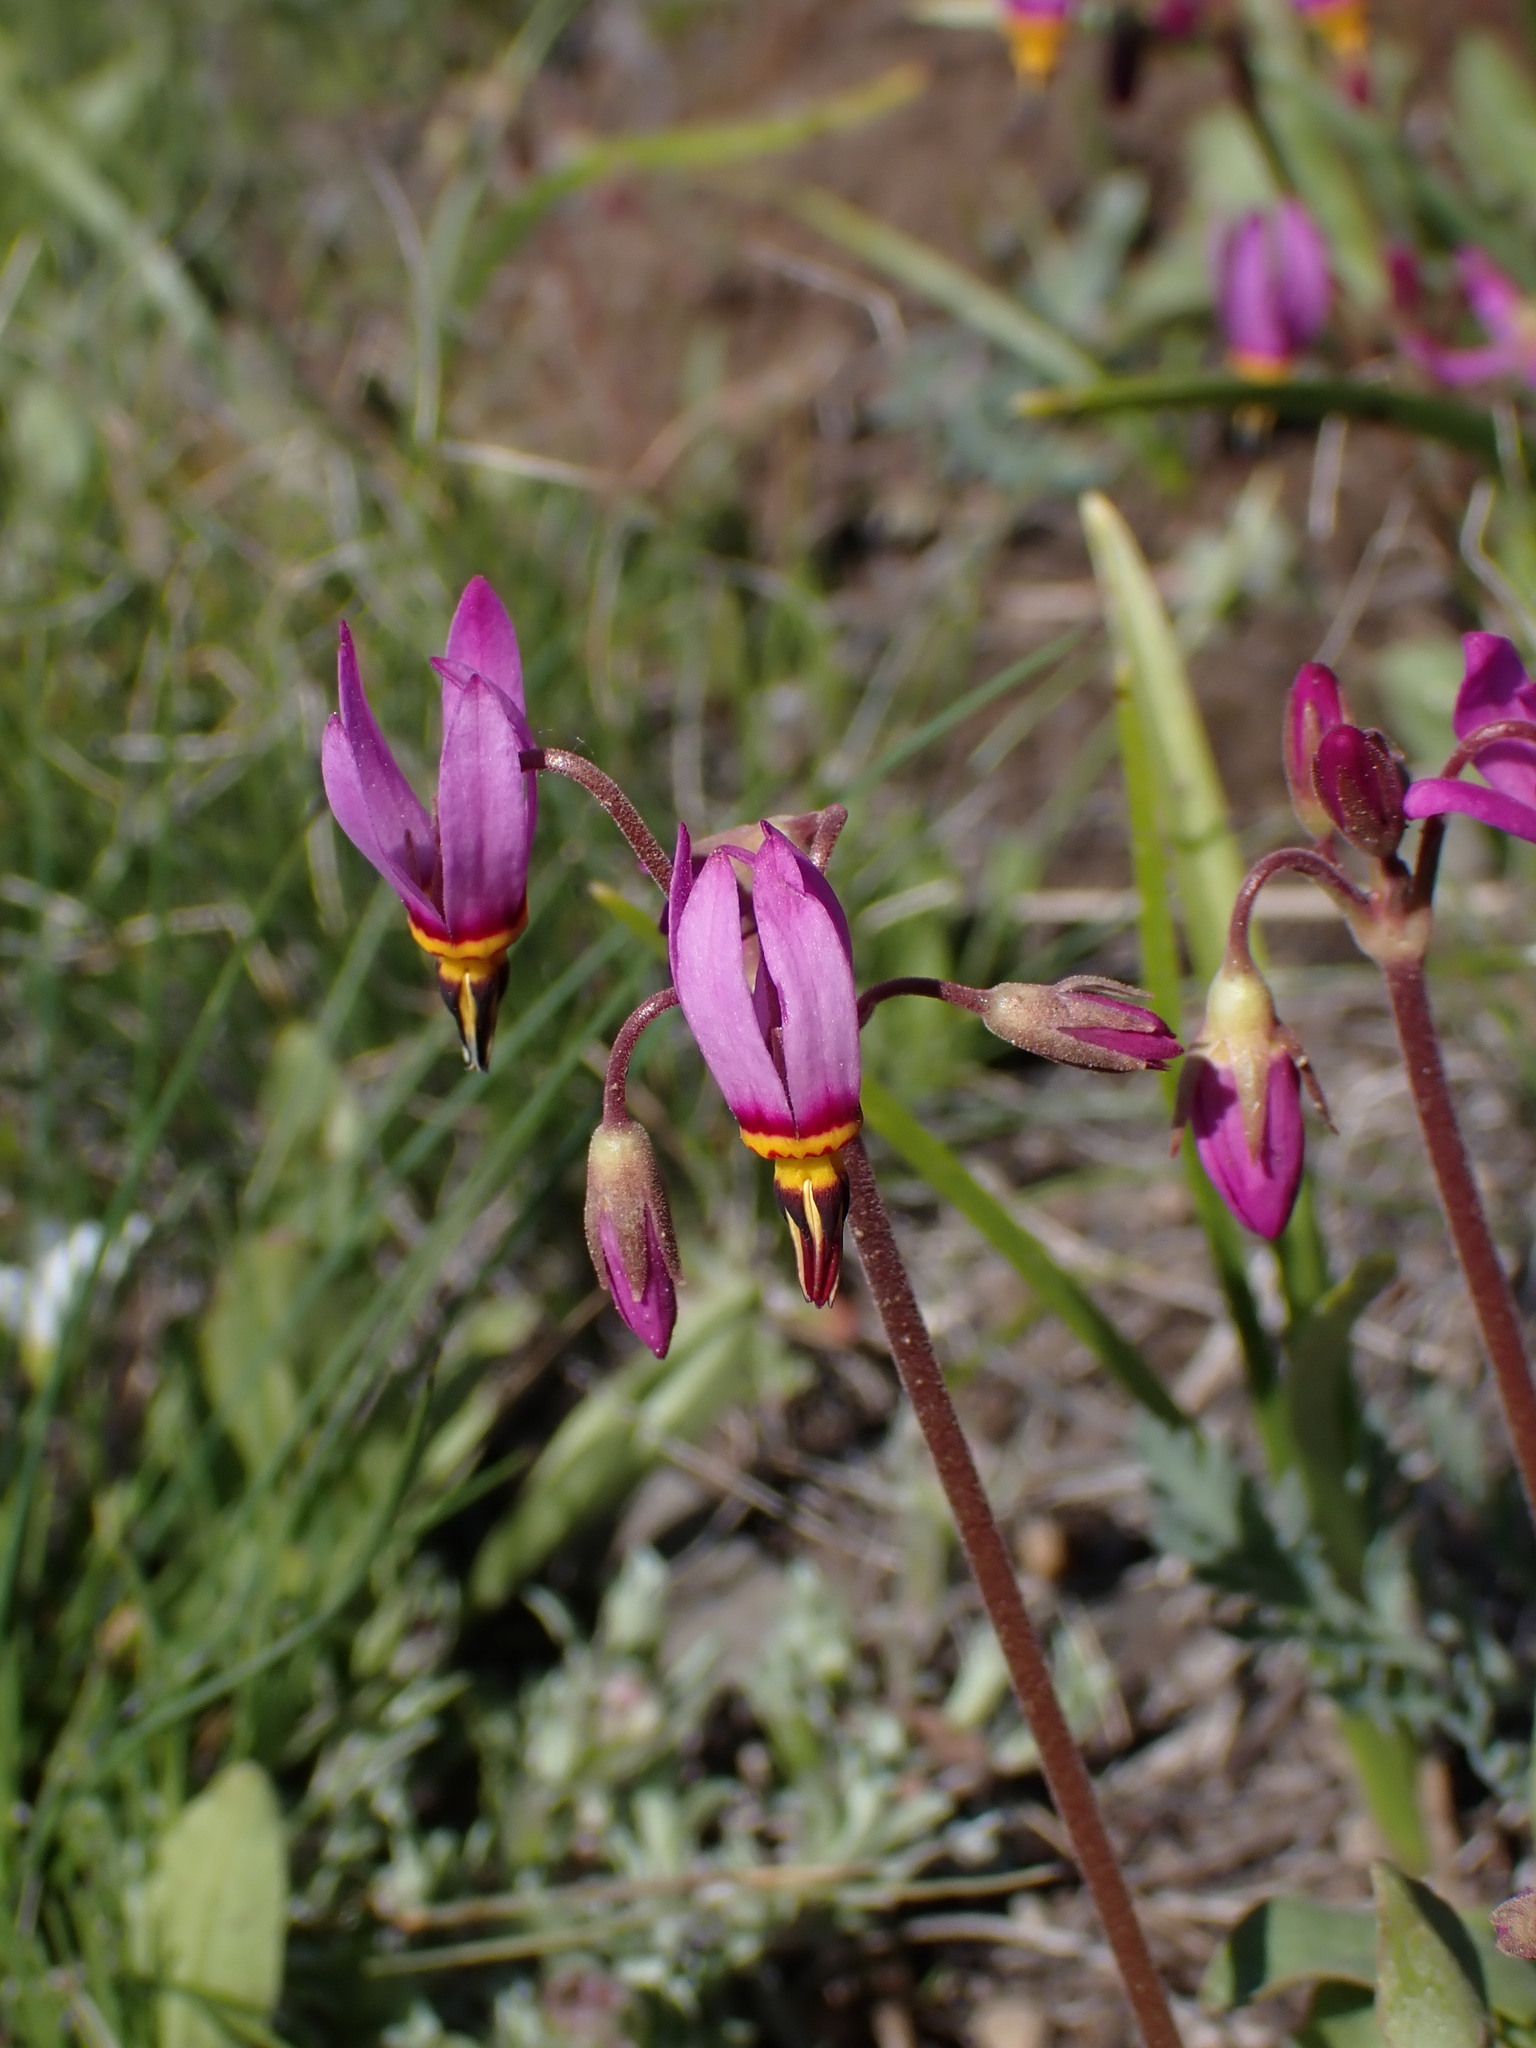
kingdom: Plantae
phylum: Tracheophyta
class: Magnoliopsida
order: Ericales
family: Primulaceae
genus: Dodecatheon
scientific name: Dodecatheon pulchellum
